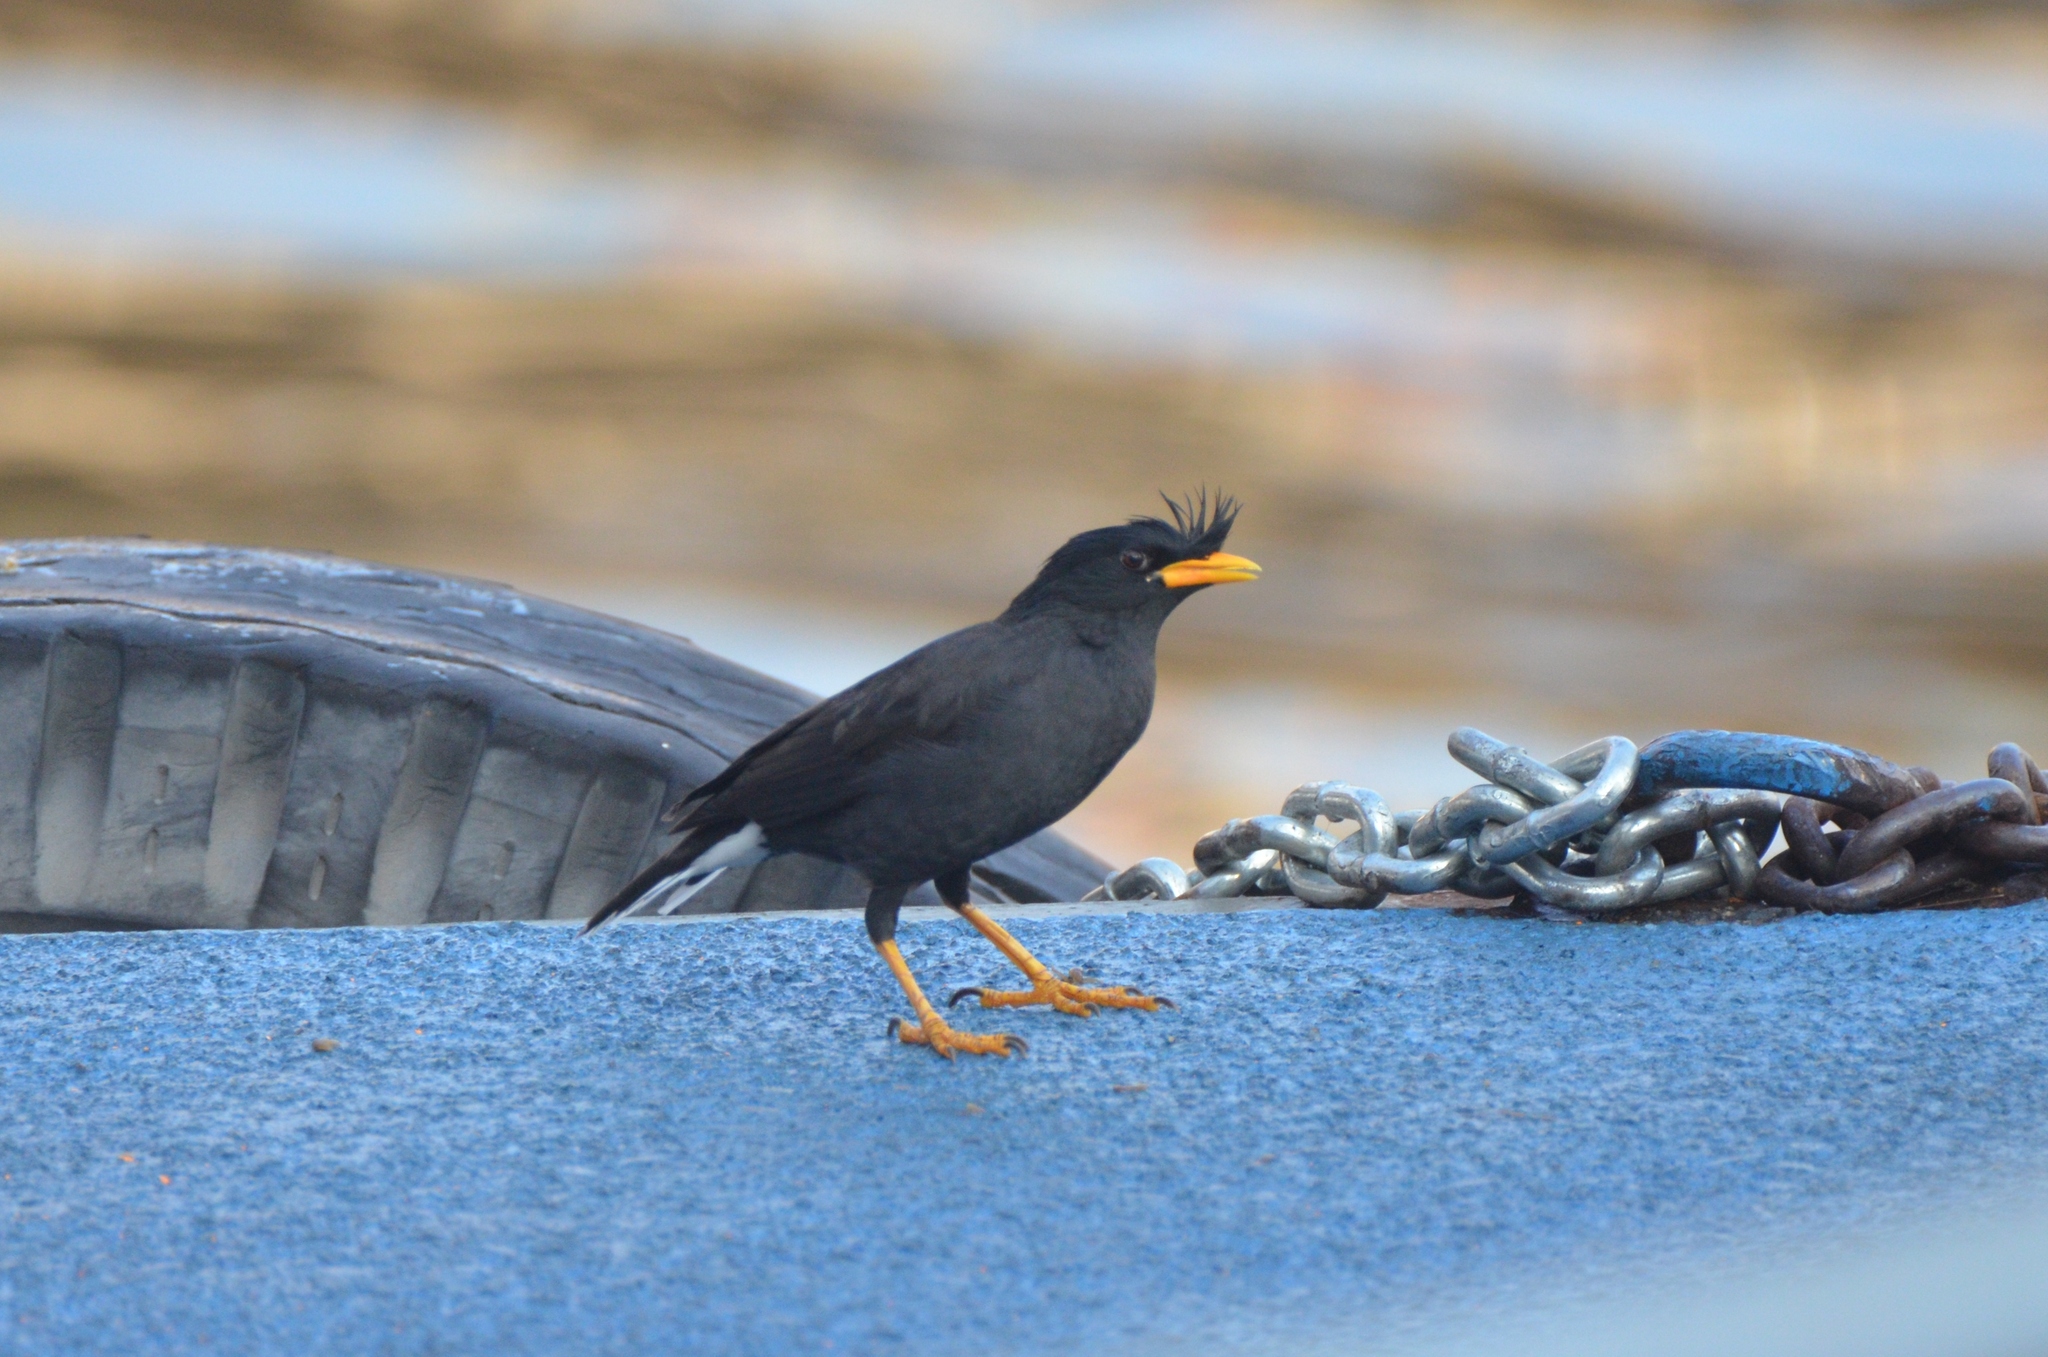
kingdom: Animalia
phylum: Chordata
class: Aves
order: Passeriformes
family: Sturnidae
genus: Acridotheres
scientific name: Acridotheres grandis
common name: Great myna
